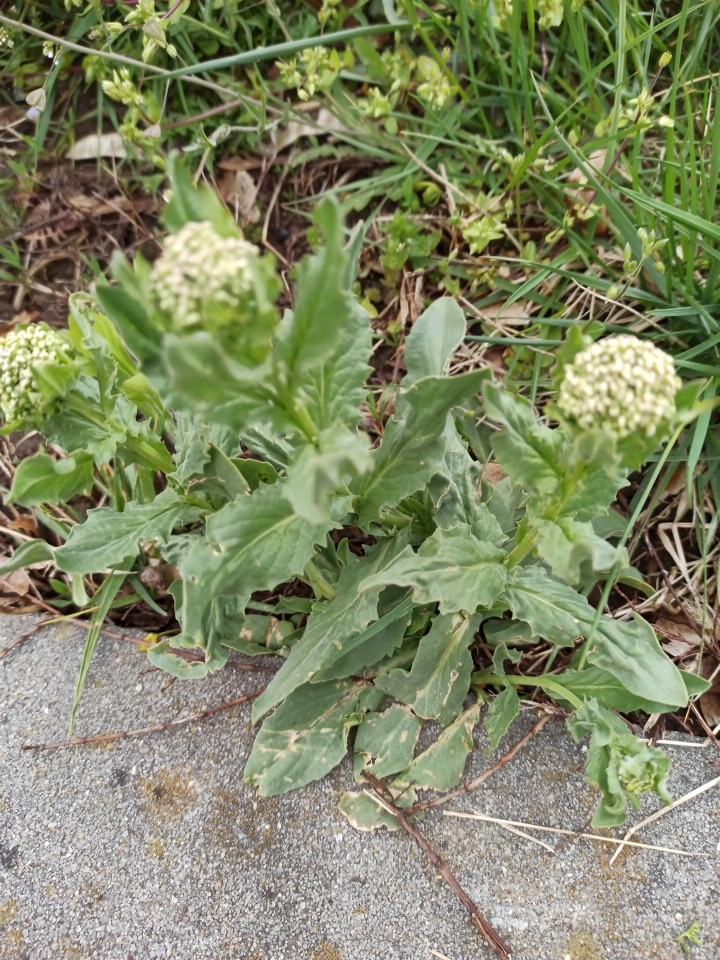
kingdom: Plantae
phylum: Tracheophyta
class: Magnoliopsida
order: Brassicales
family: Brassicaceae
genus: Lepidium
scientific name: Lepidium draba
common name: Hoary cress
